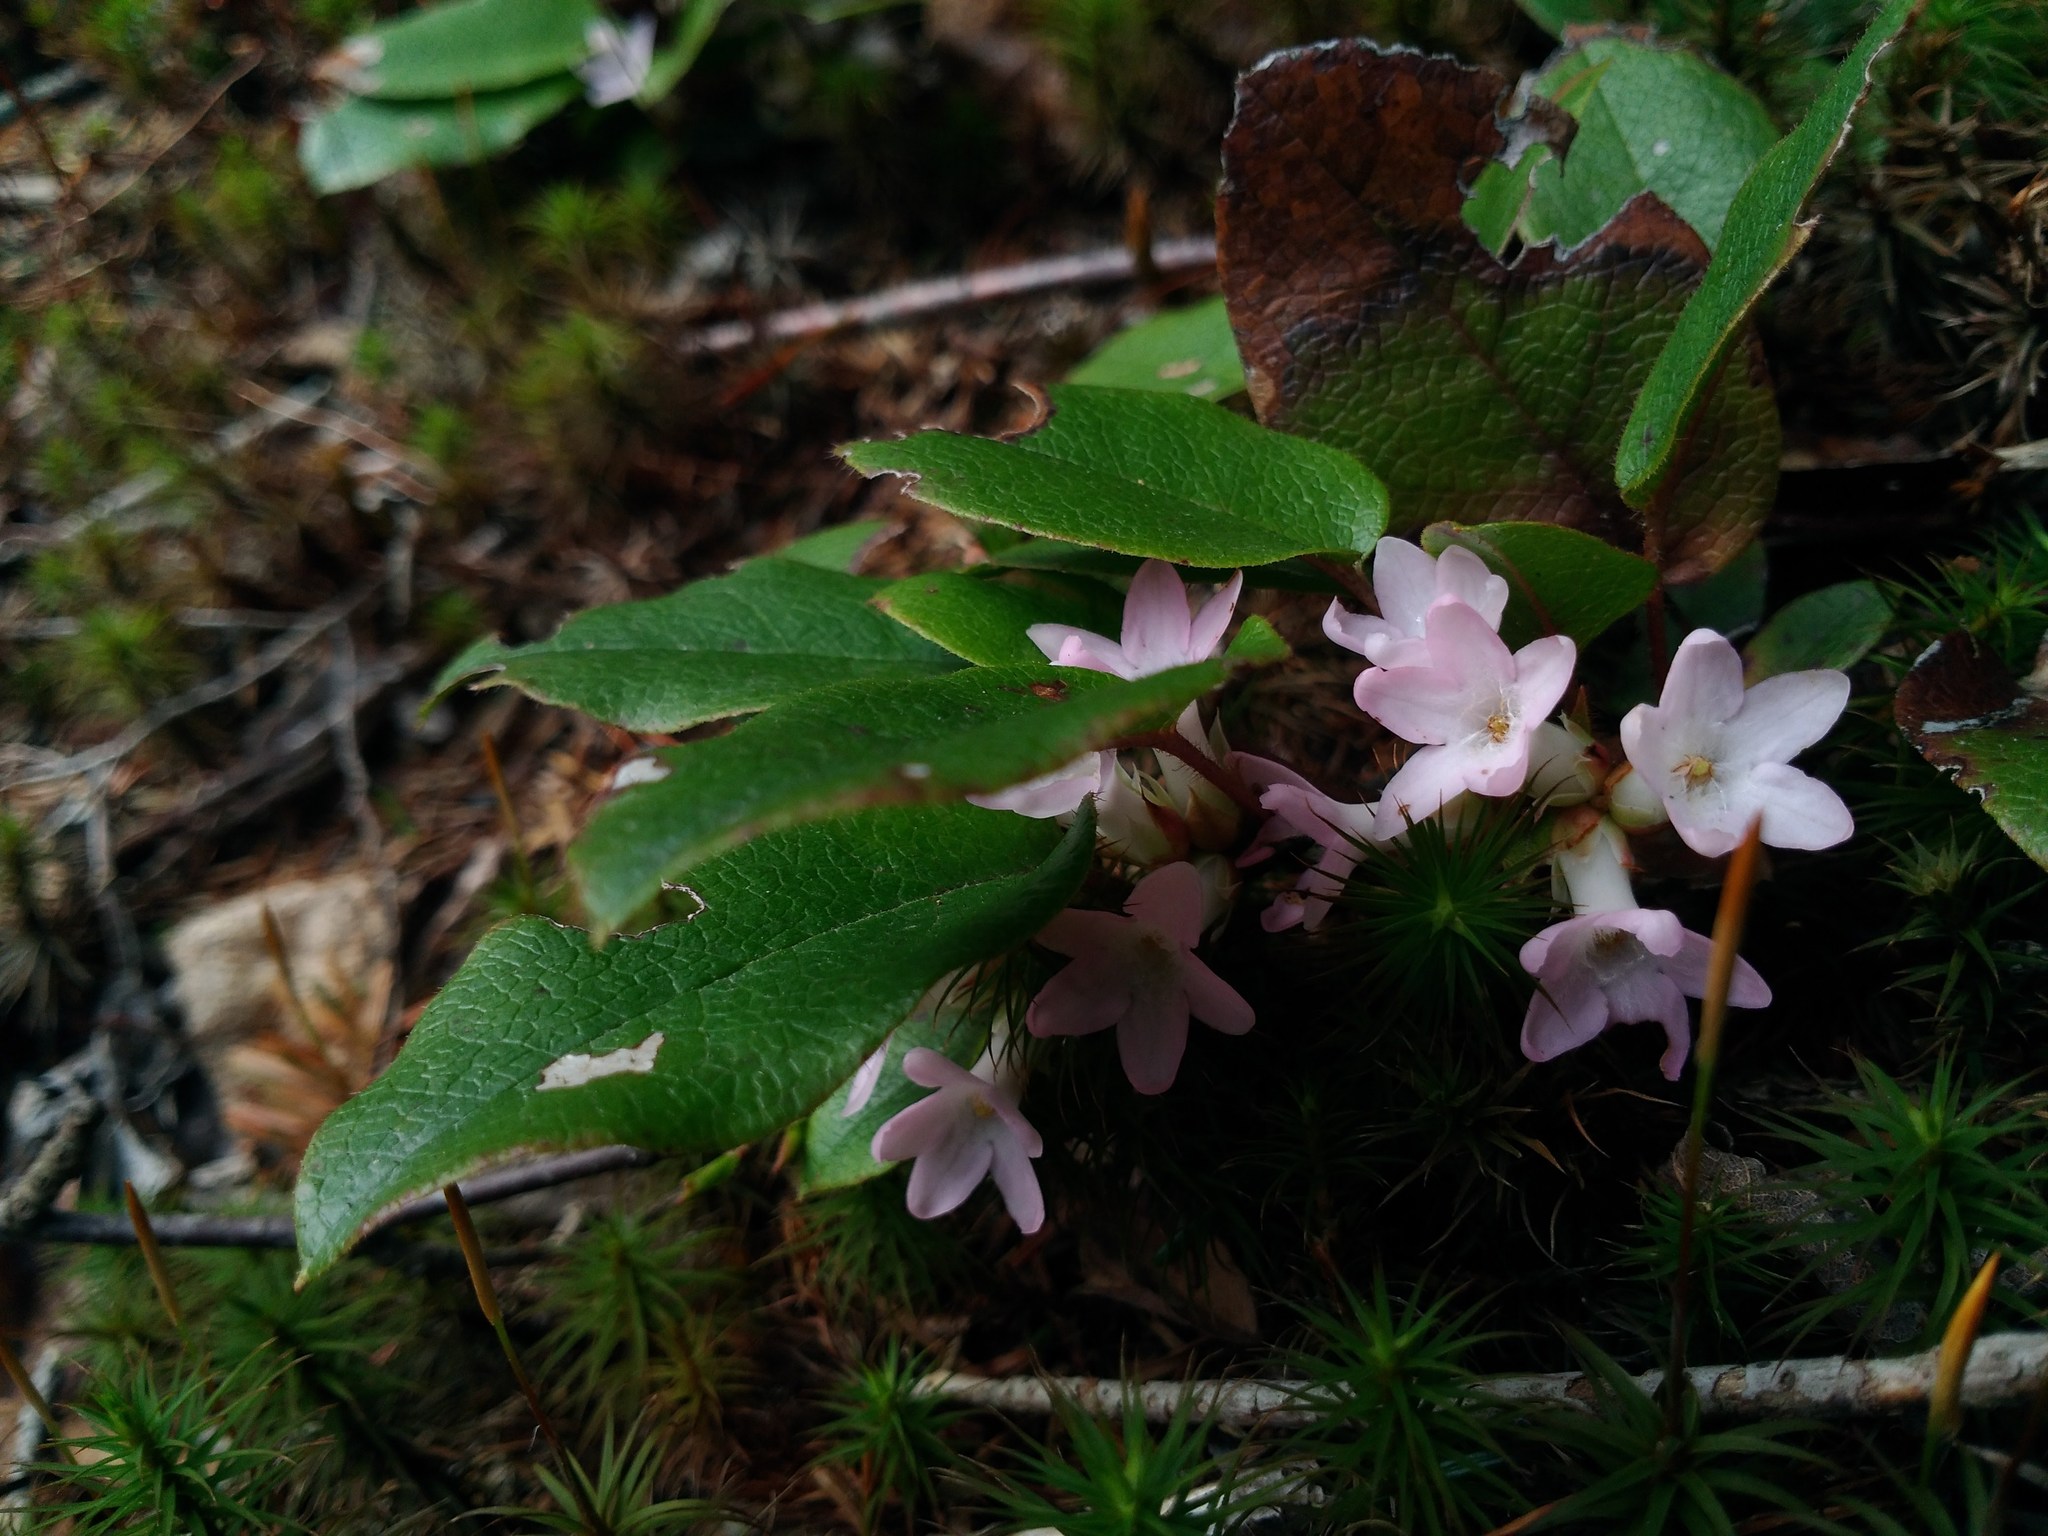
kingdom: Plantae
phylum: Tracheophyta
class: Magnoliopsida
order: Ericales
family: Ericaceae
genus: Epigaea
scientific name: Epigaea repens
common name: Gravelroot
